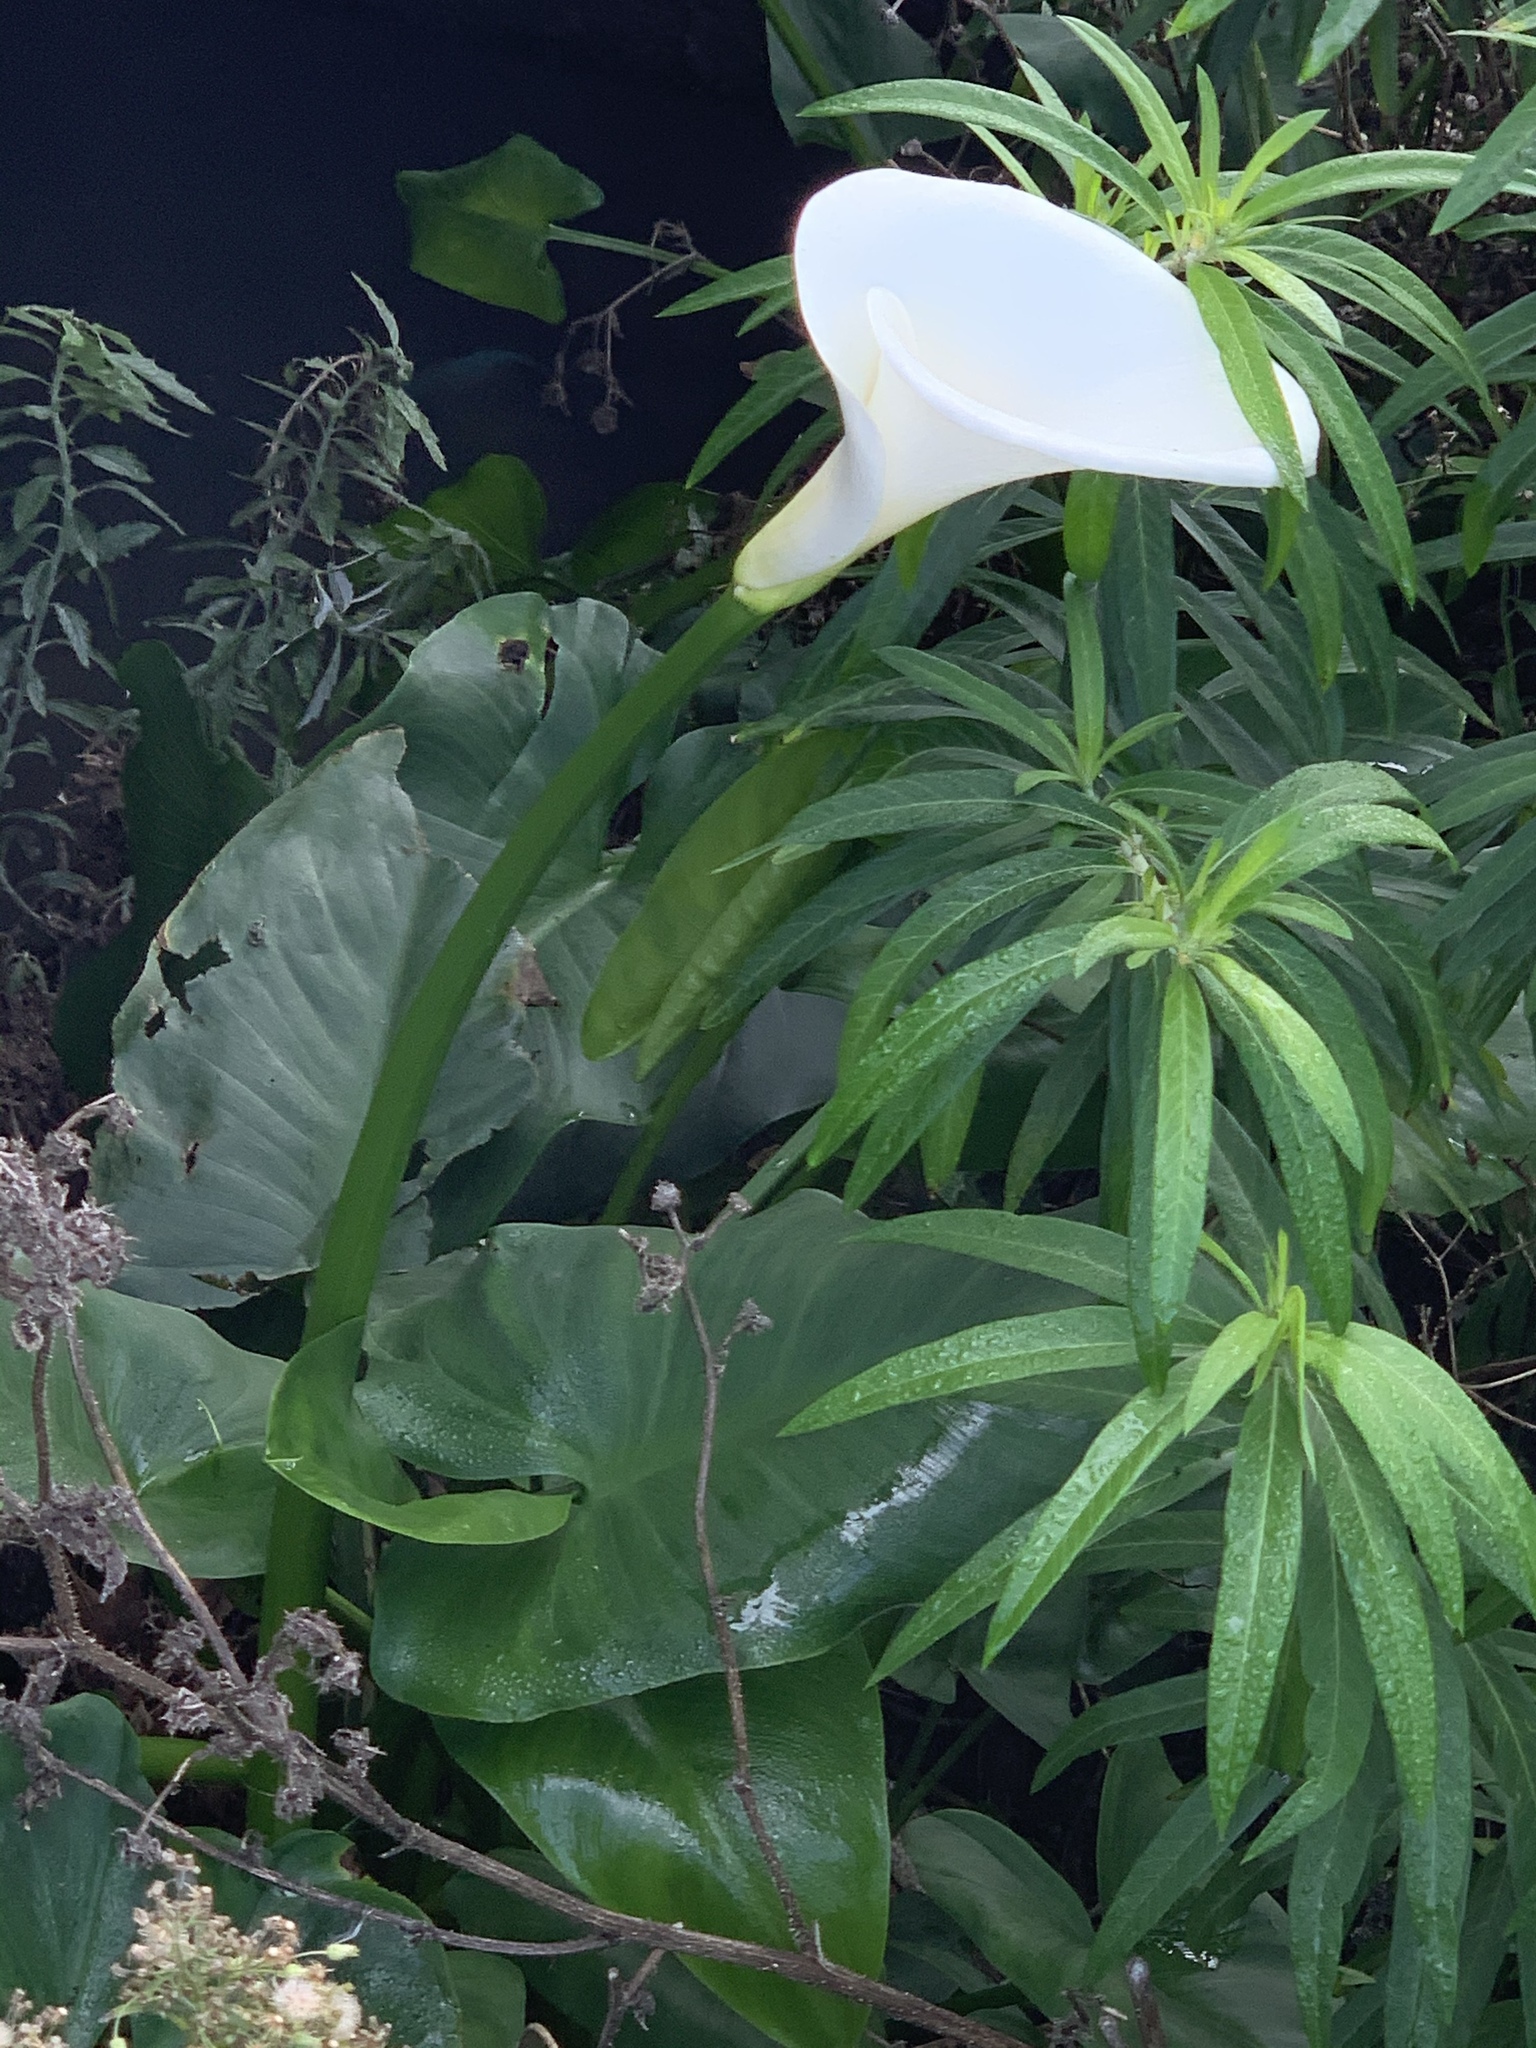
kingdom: Plantae
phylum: Tracheophyta
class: Liliopsida
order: Alismatales
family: Araceae
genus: Zantedeschia
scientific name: Zantedeschia aethiopica
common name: Altar-lily
